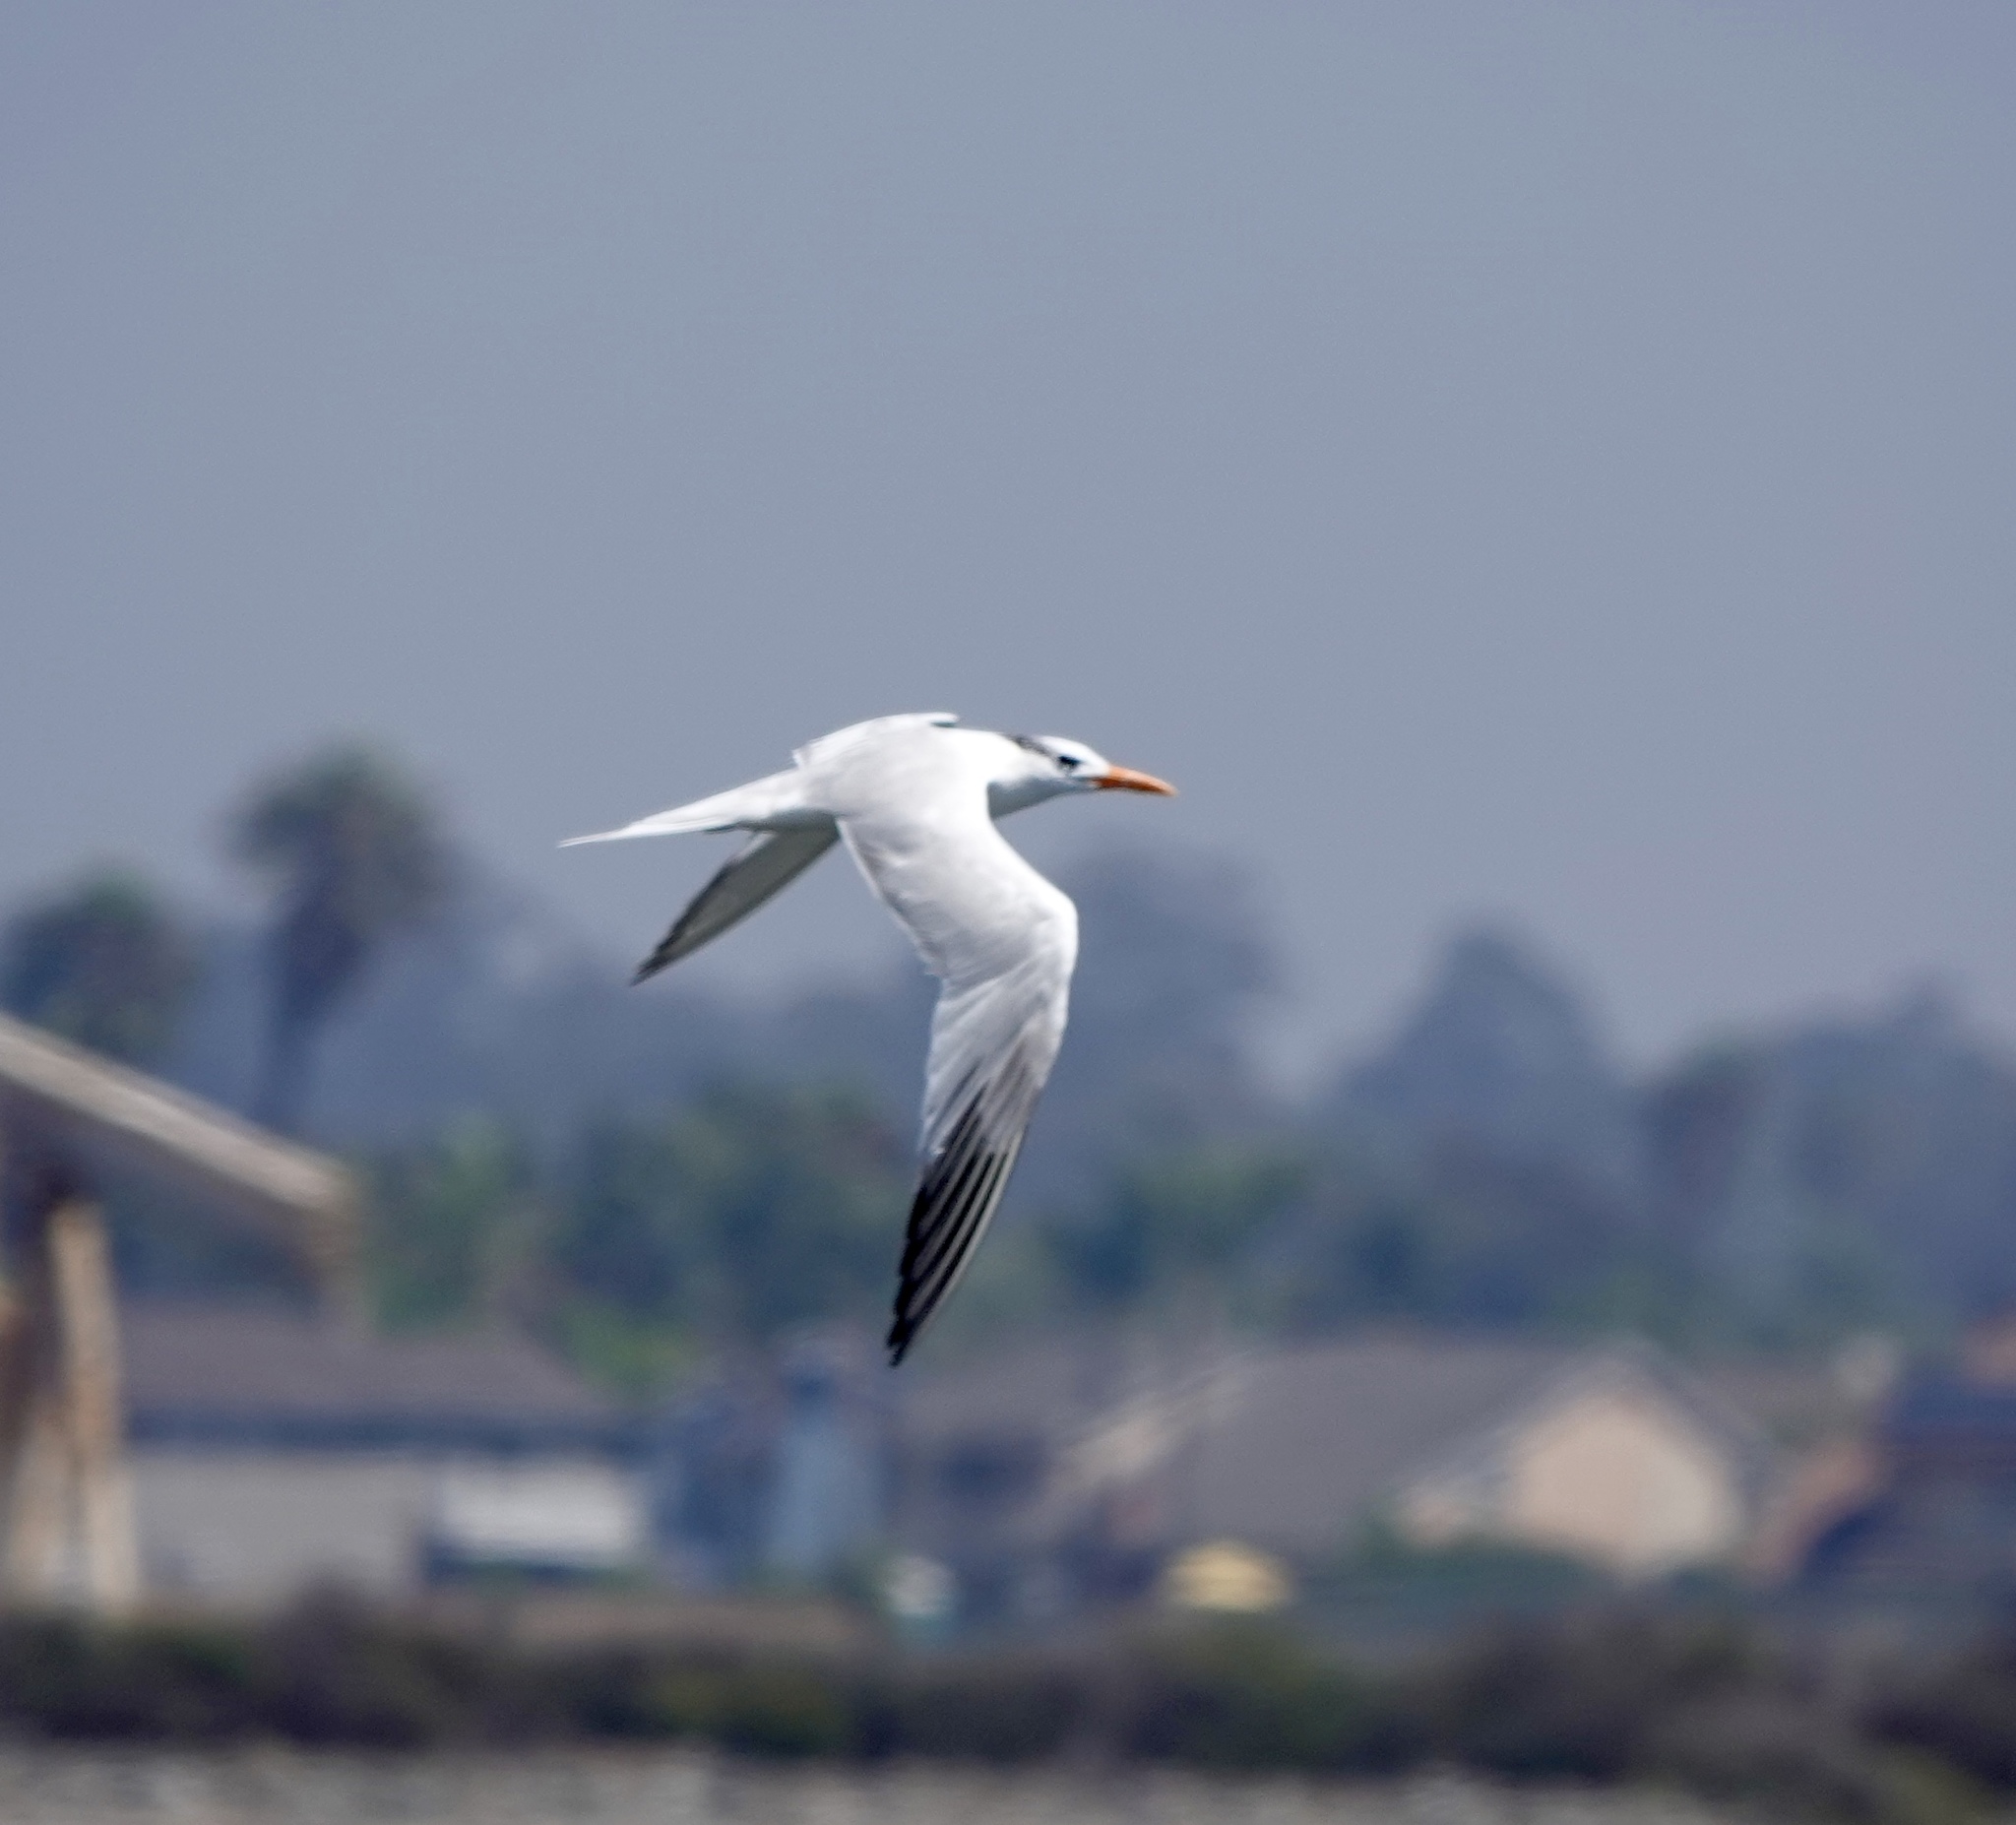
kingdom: Animalia
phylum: Chordata
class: Aves
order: Charadriiformes
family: Laridae
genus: Thalasseus
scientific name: Thalasseus maximus
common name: Royal tern
